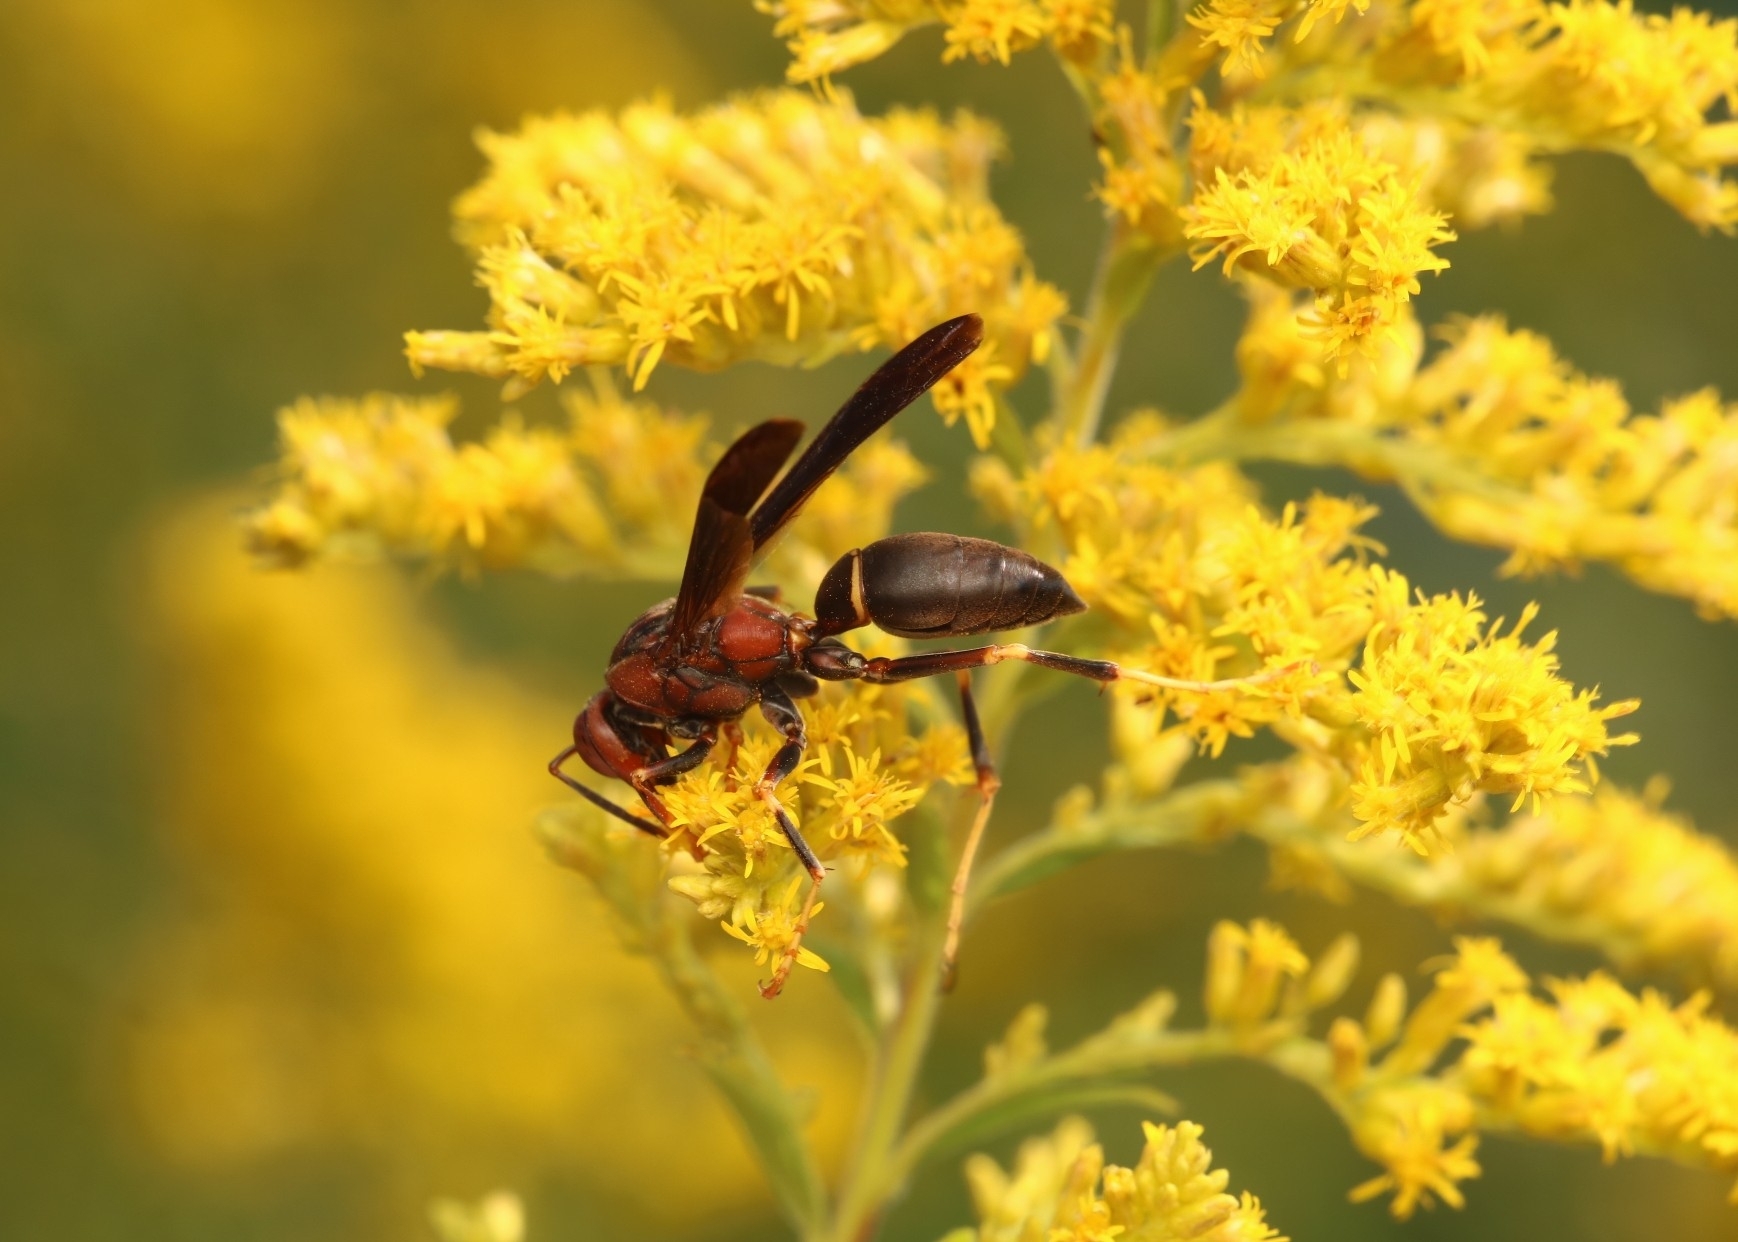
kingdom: Animalia
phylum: Arthropoda
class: Insecta
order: Hymenoptera
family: Eumenidae
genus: Polistes
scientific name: Polistes annularis
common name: Ringed paper wasp
